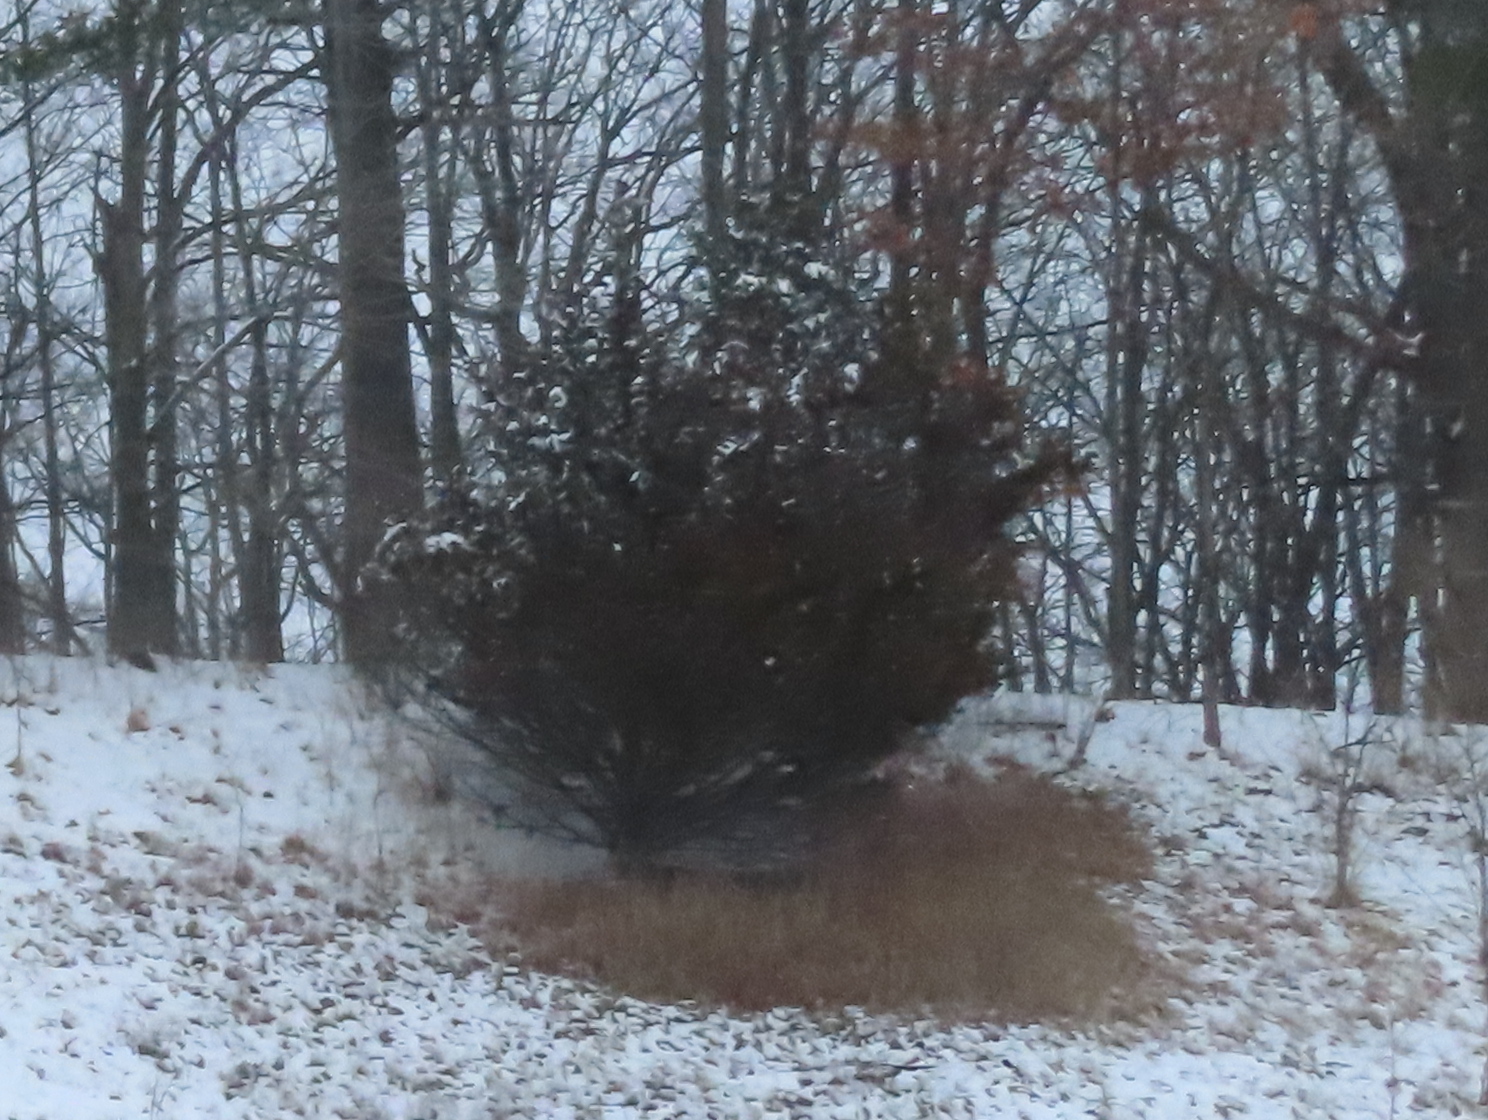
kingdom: Plantae
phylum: Tracheophyta
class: Pinopsida
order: Pinales
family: Cupressaceae
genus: Juniperus
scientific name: Juniperus virginiana
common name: Red juniper
